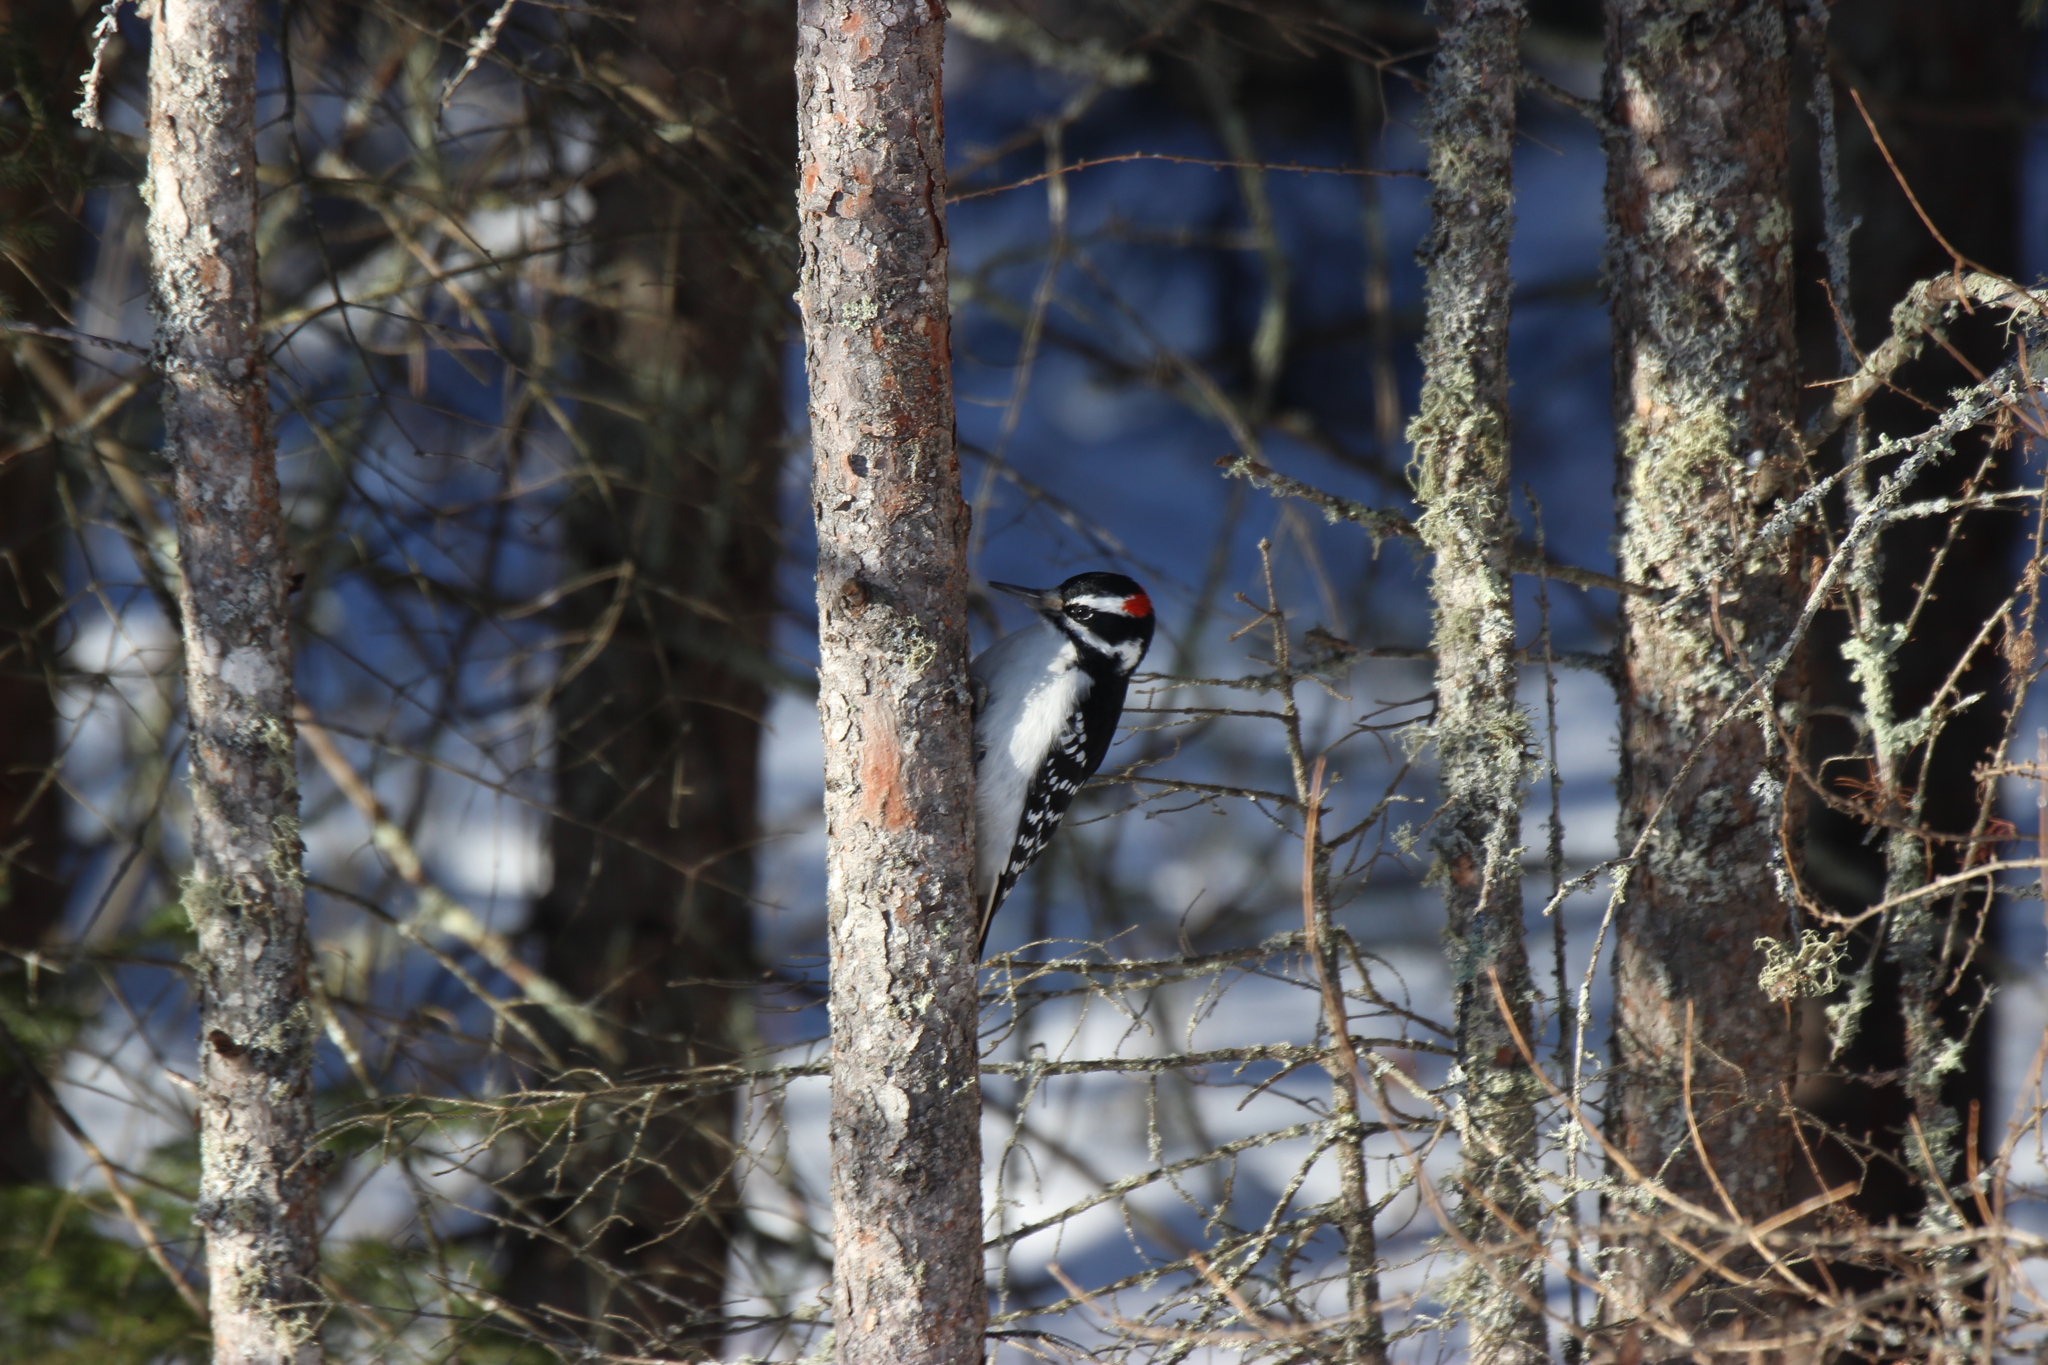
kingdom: Animalia
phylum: Chordata
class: Aves
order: Piciformes
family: Picidae
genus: Leuconotopicus
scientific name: Leuconotopicus villosus
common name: Hairy woodpecker
